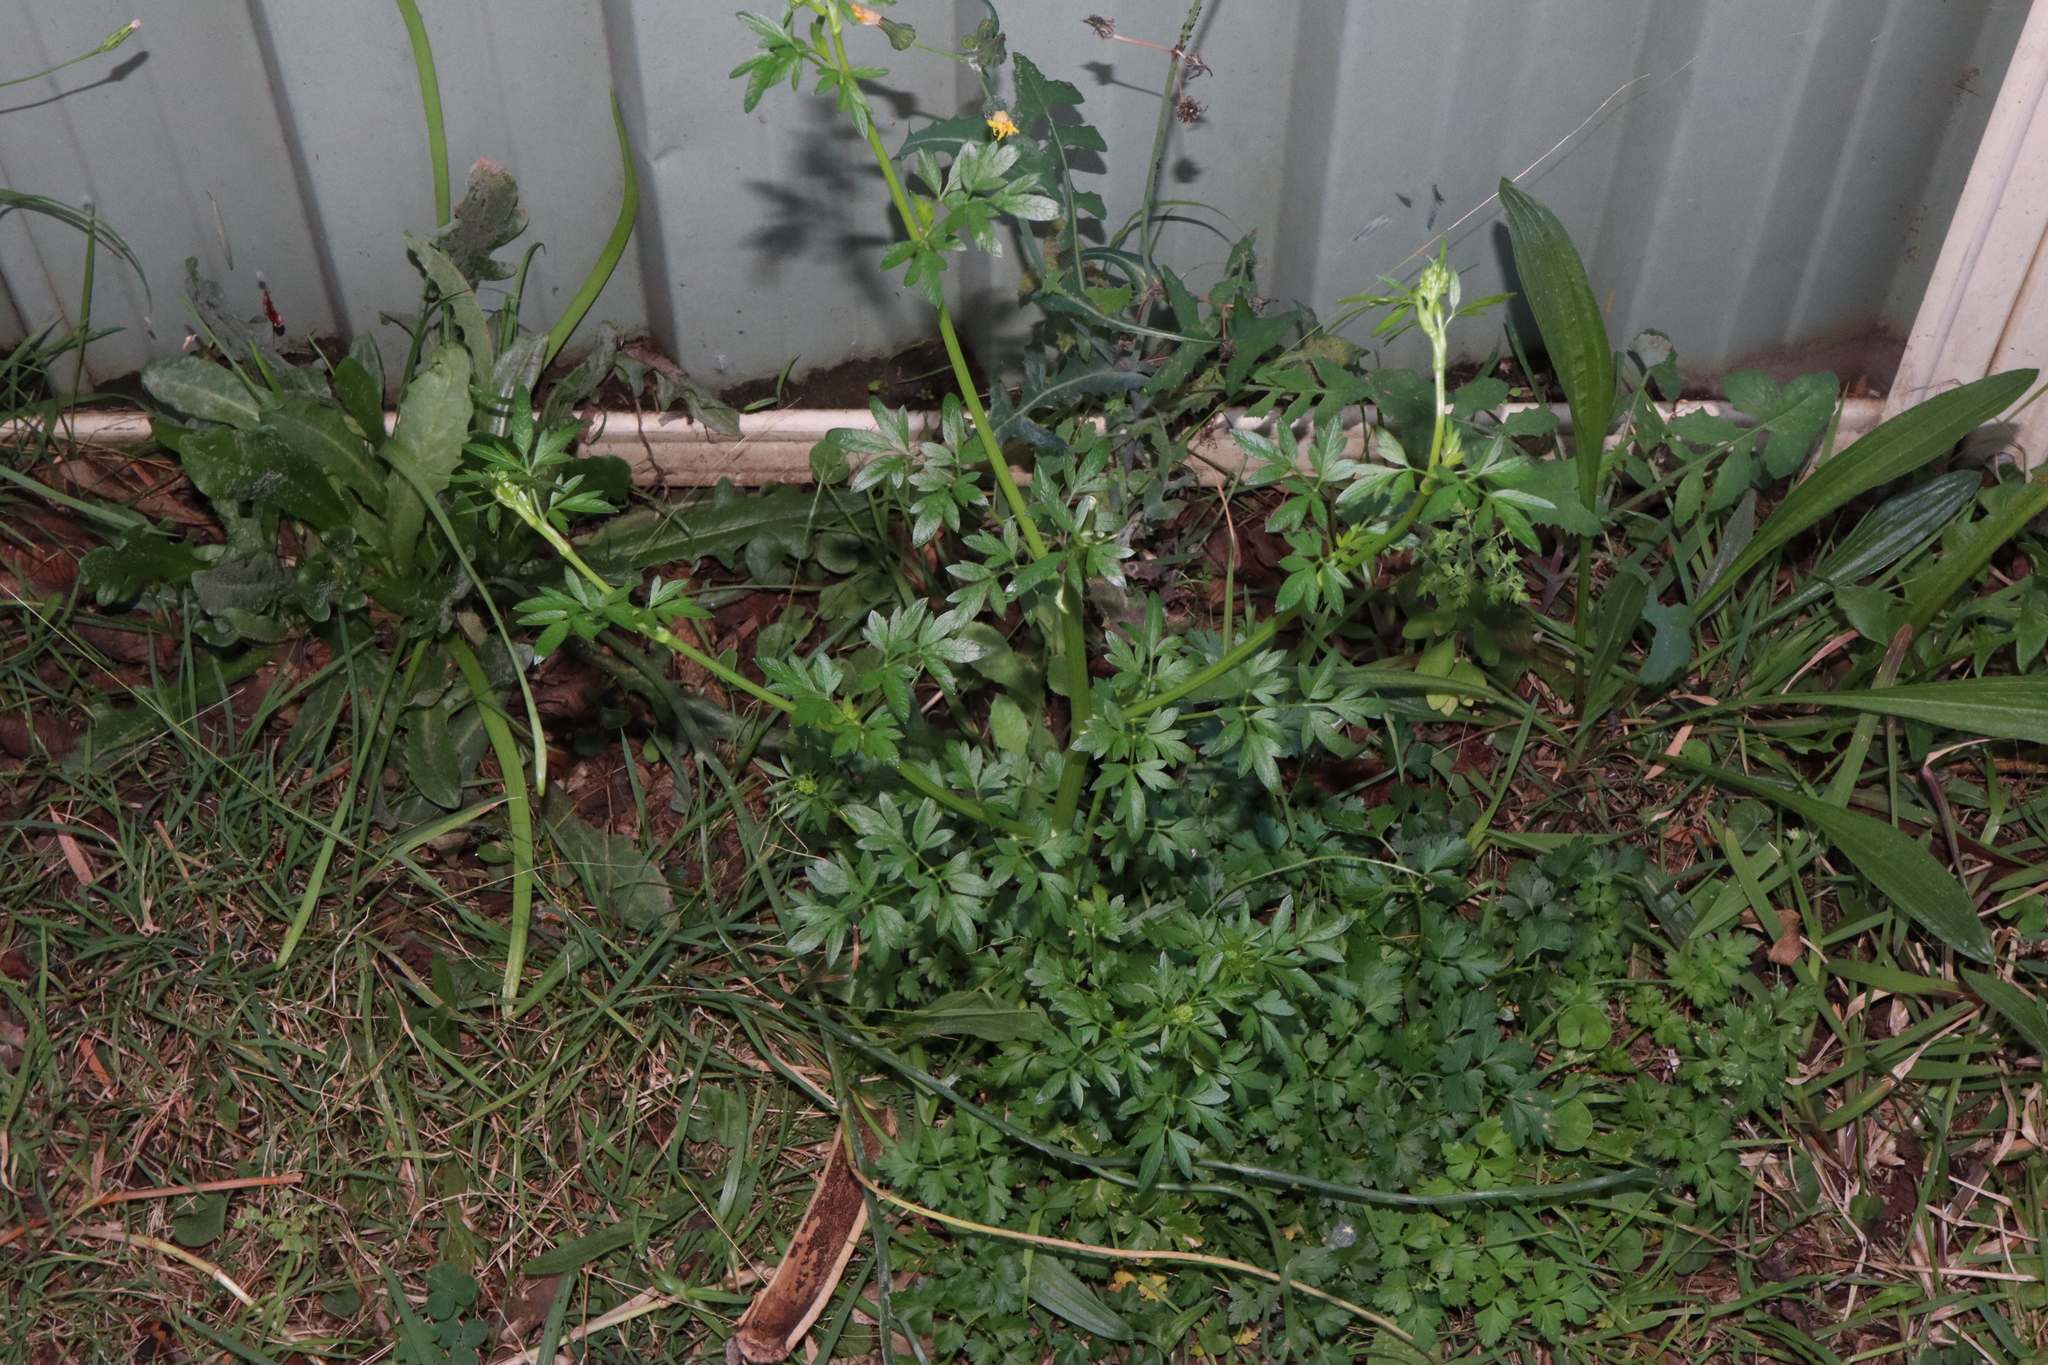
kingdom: Plantae
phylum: Tracheophyta
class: Magnoliopsida
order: Apiales
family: Apiaceae
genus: Petroselinum
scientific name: Petroselinum crispum
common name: Parsley
